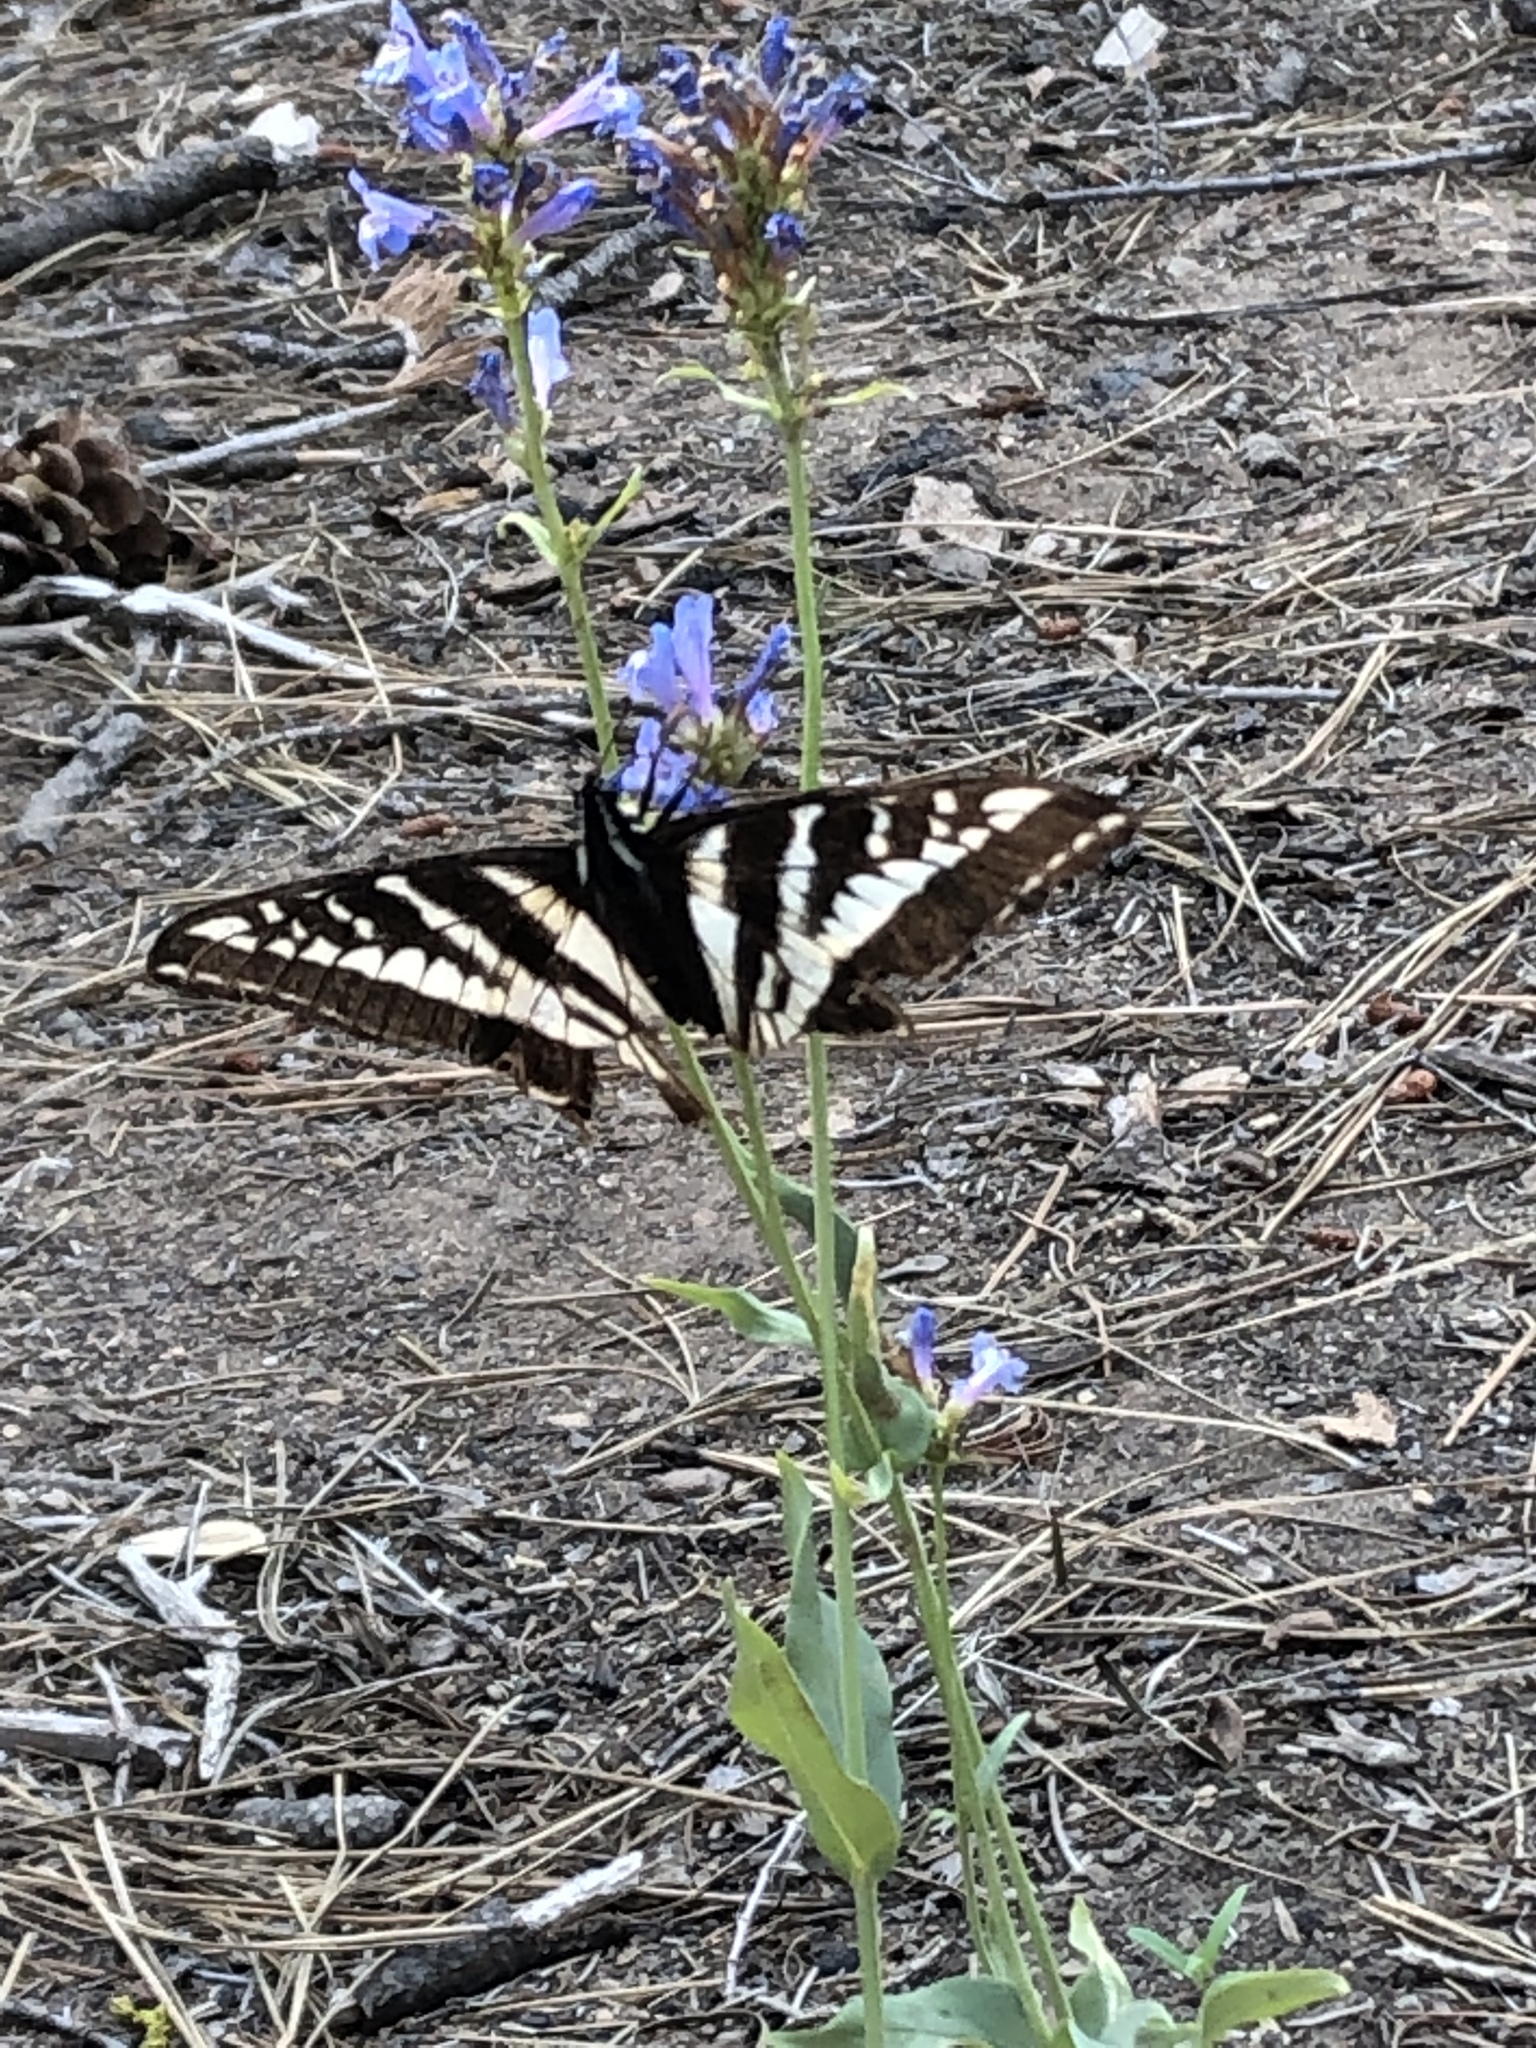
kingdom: Animalia
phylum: Arthropoda
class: Insecta
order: Lepidoptera
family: Papilionidae
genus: Papilio
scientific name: Papilio eurymedon
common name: Pale tiger swallowtail
